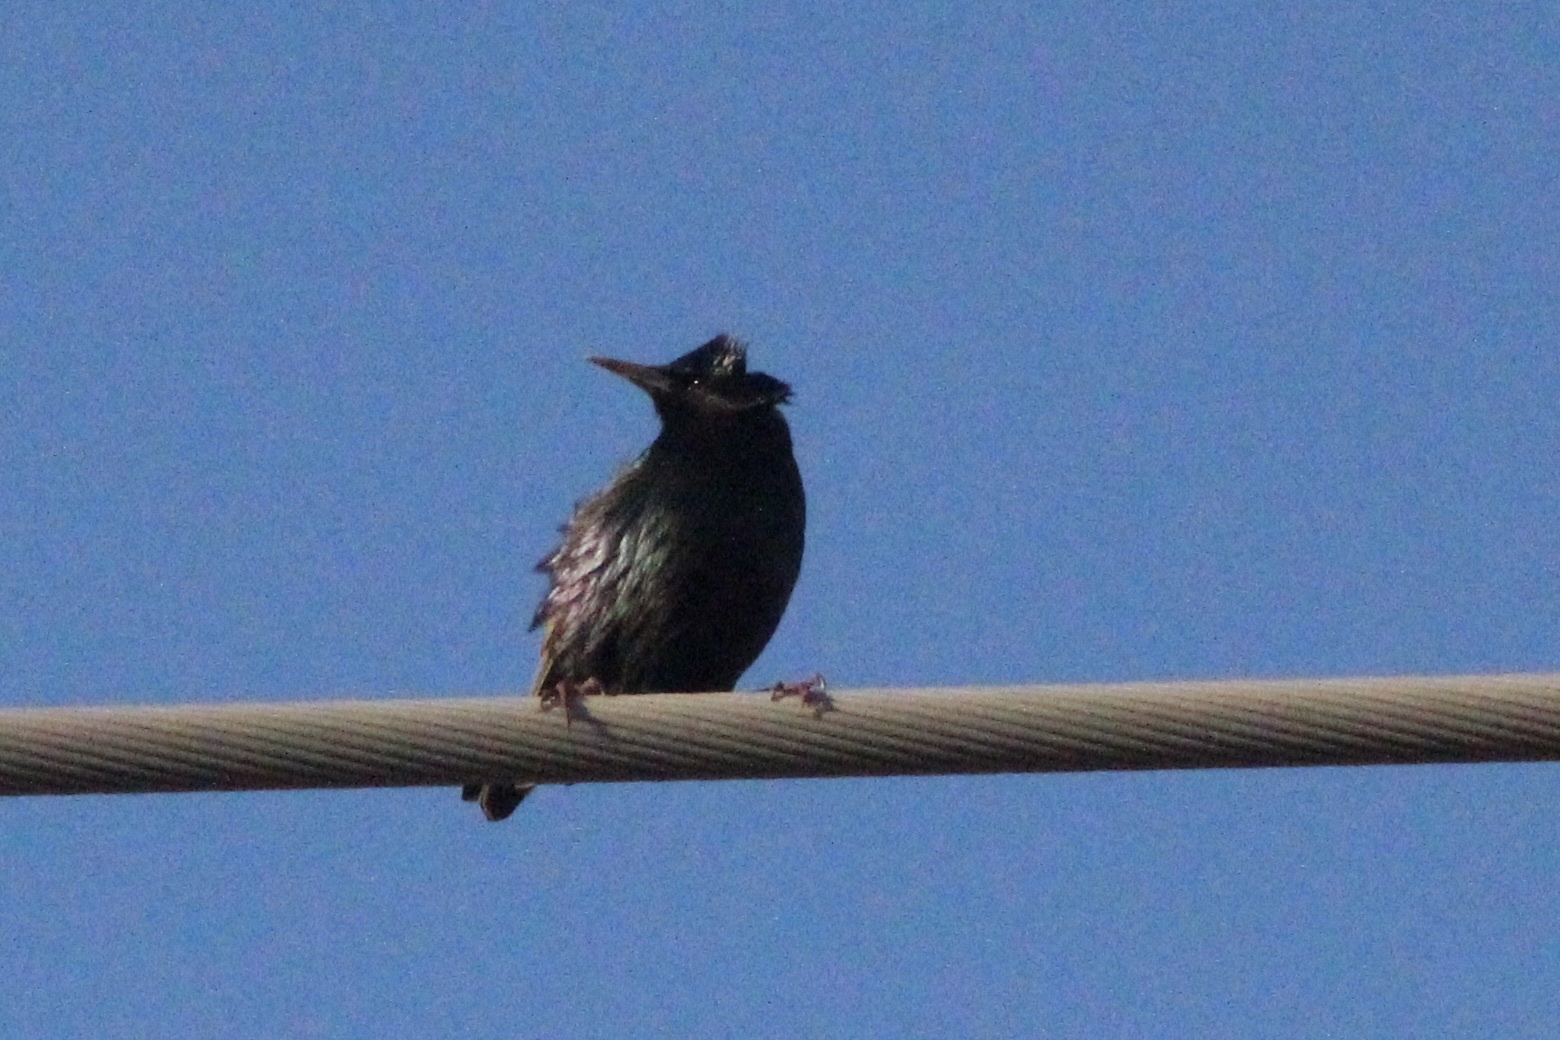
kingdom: Animalia
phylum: Chordata
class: Aves
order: Passeriformes
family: Sturnidae
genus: Sturnus
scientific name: Sturnus vulgaris
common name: Common starling
